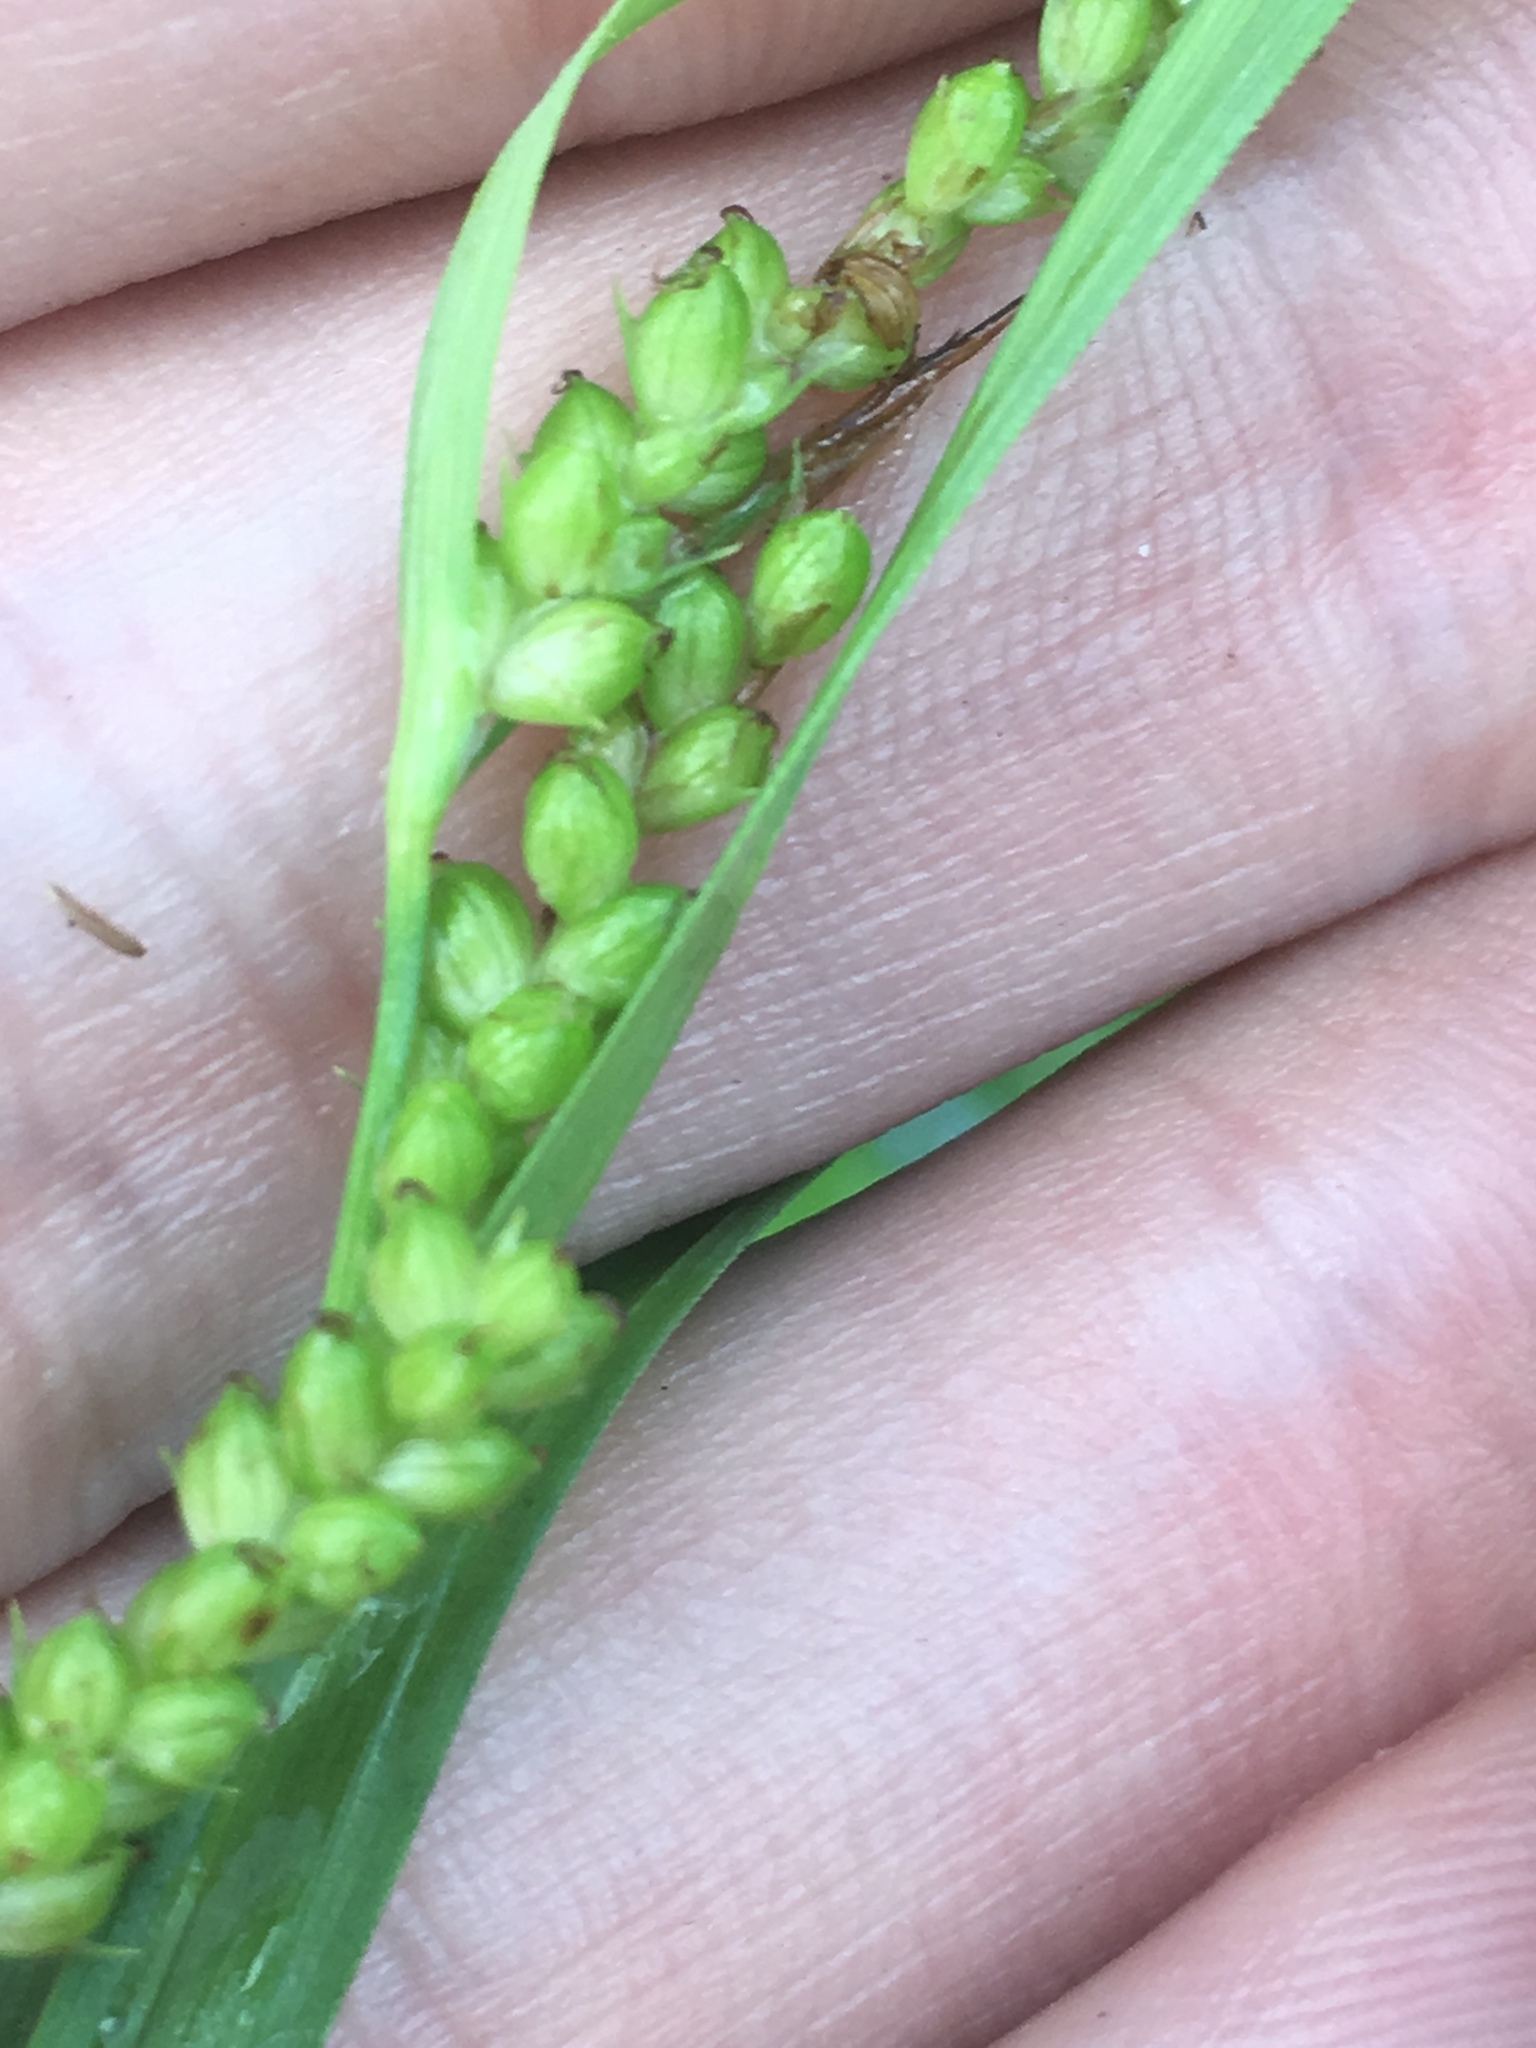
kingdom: Plantae
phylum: Tracheophyta
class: Liliopsida
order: Poales
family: Cyperaceae
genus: Carex
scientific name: Carex granularis
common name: Granular sedge
